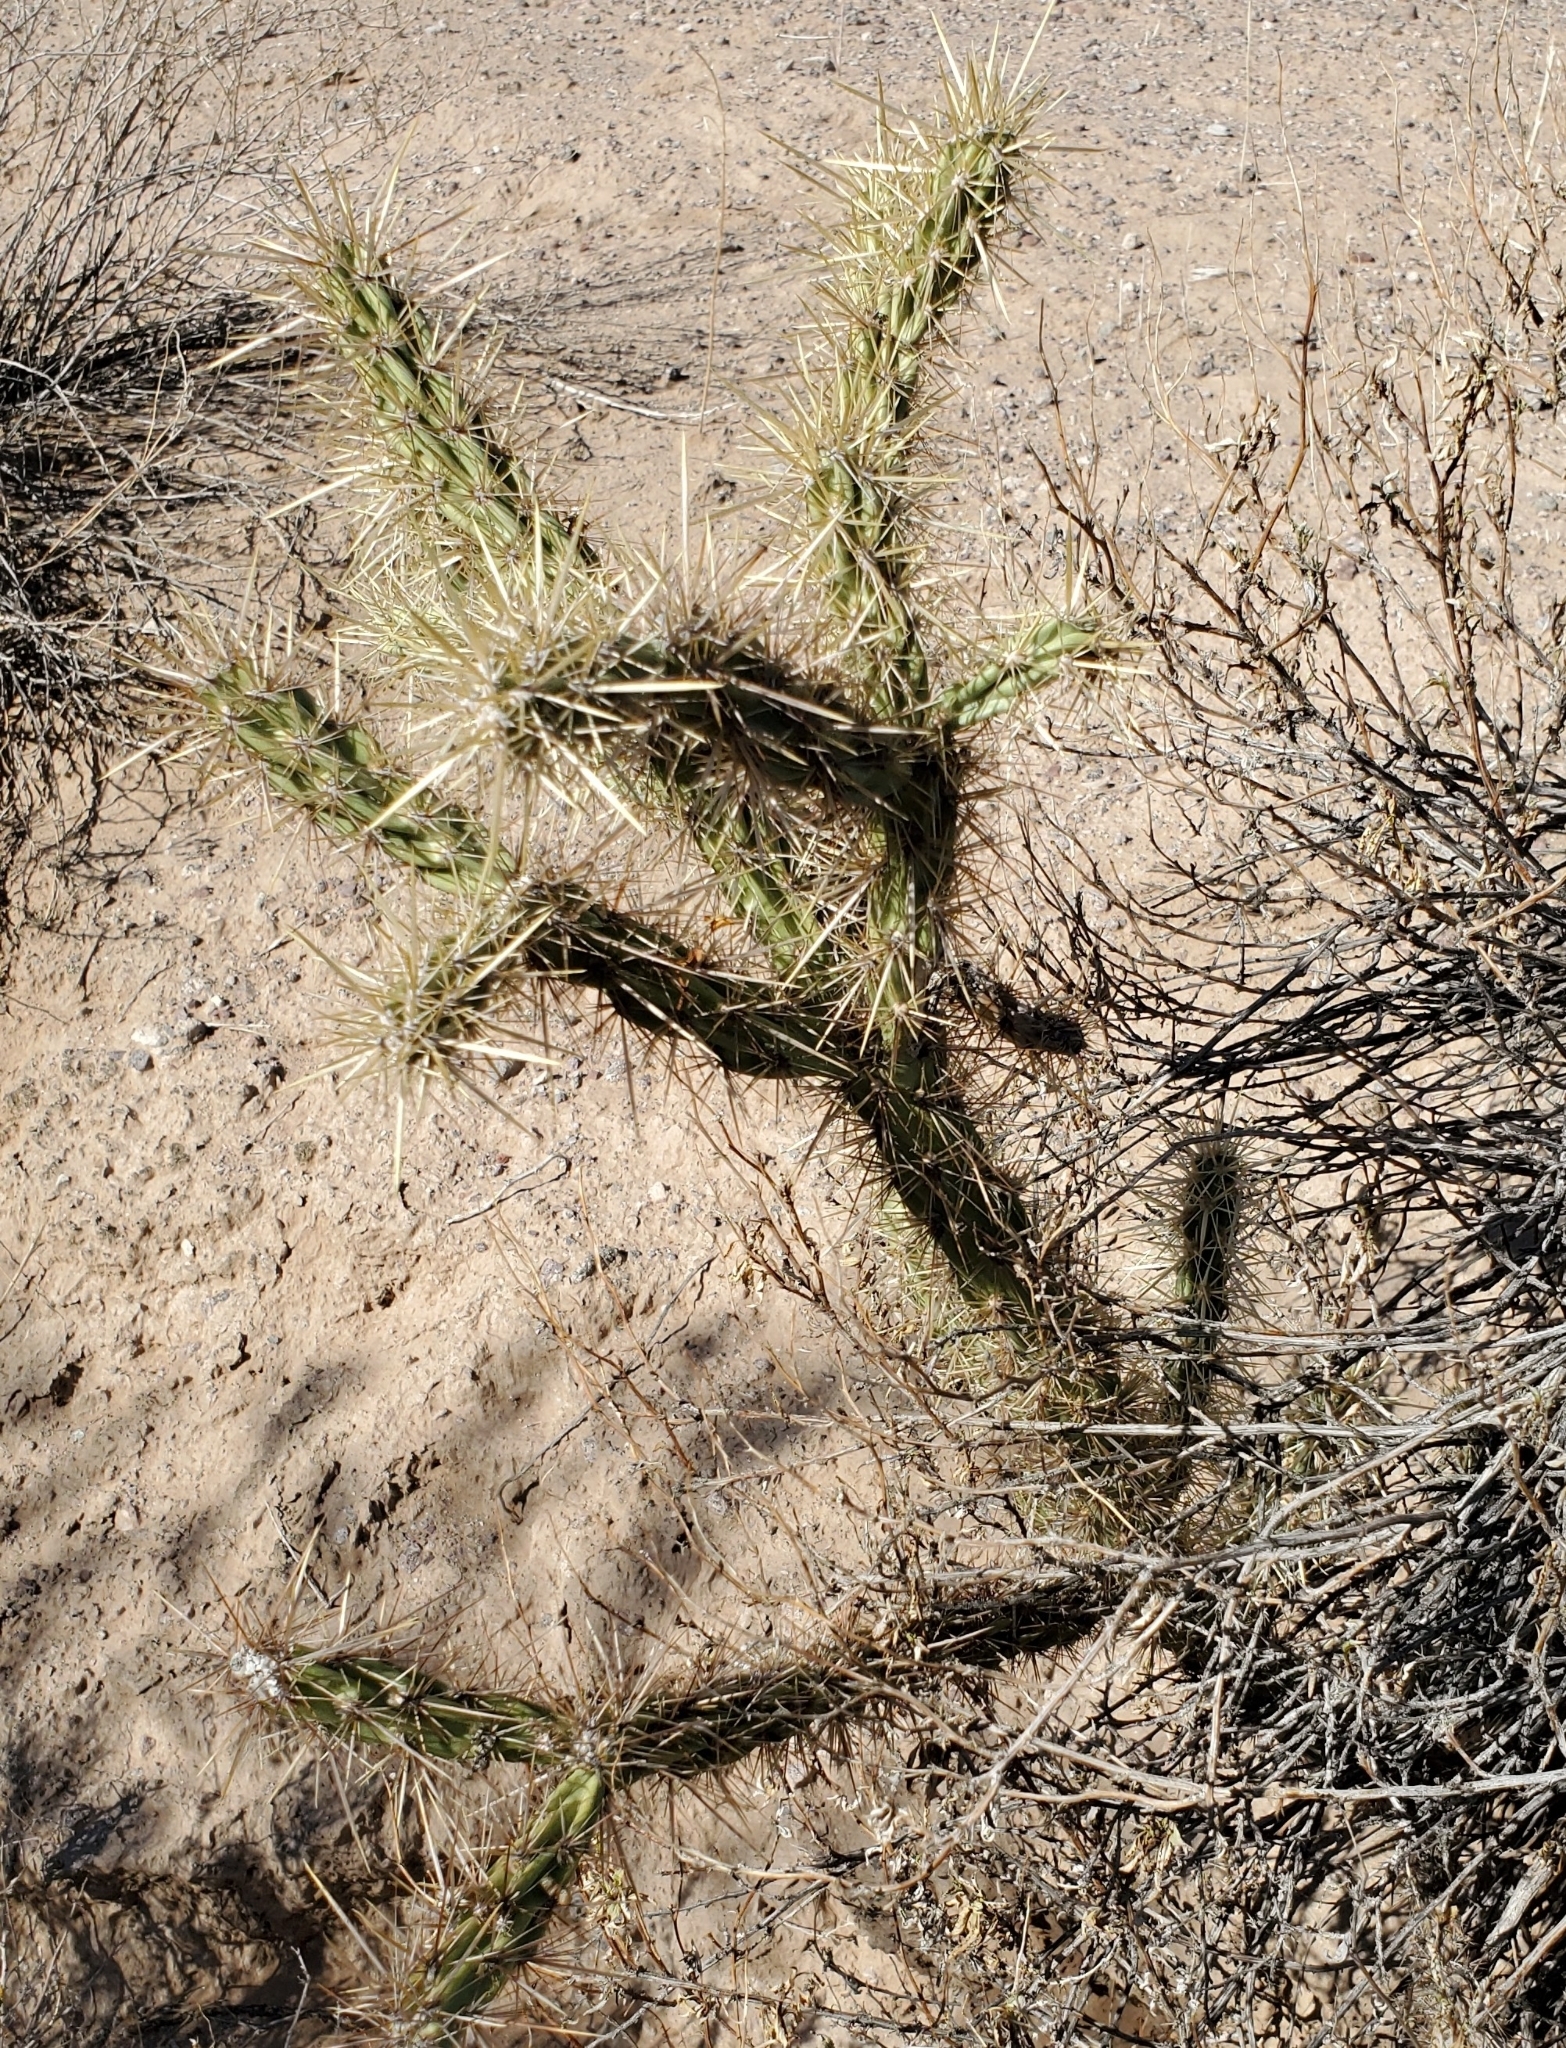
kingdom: Plantae
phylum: Tracheophyta
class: Magnoliopsida
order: Caryophyllales
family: Cactaceae
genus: Cylindropuntia
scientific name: Cylindropuntia acanthocarpa
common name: Buckhorn cholla
